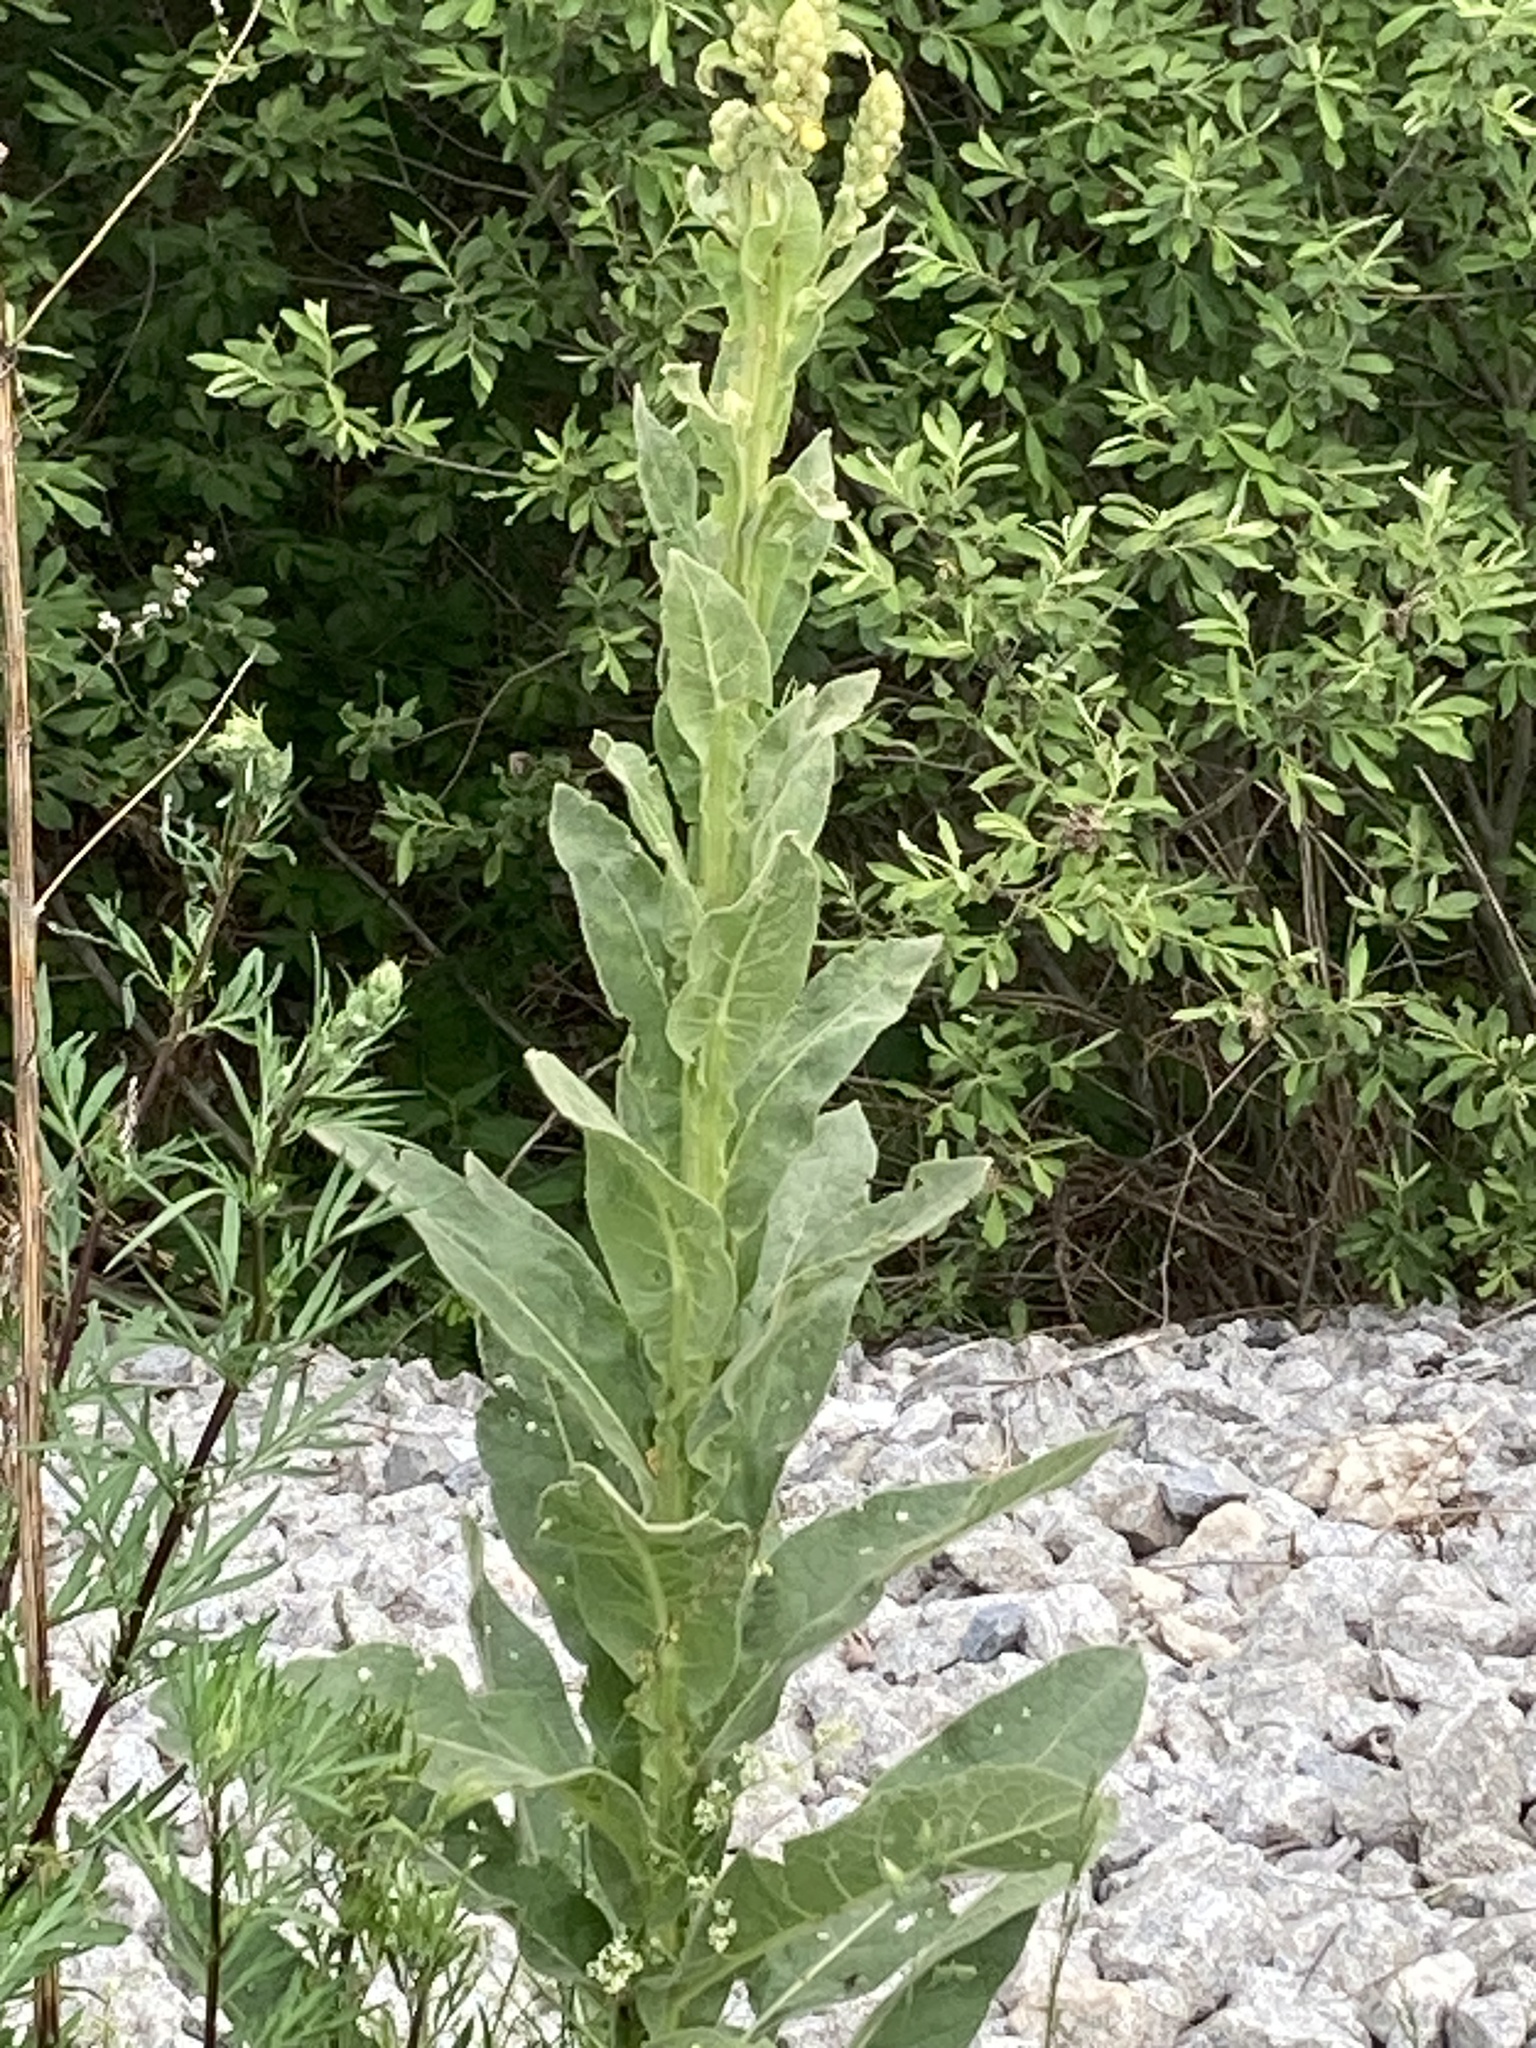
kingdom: Plantae
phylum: Tracheophyta
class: Magnoliopsida
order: Lamiales
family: Scrophulariaceae
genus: Verbascum
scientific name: Verbascum thapsus
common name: Common mullein
